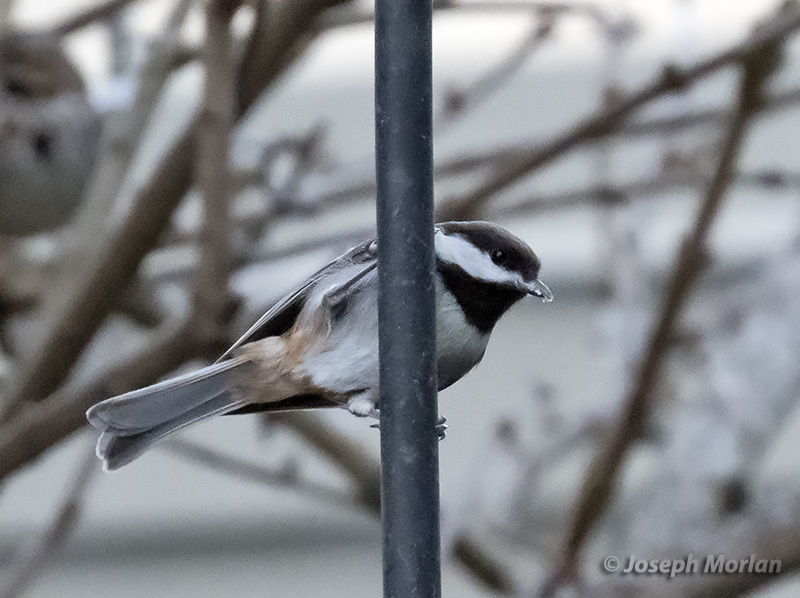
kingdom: Animalia
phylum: Chordata
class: Aves
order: Passeriformes
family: Paridae
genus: Poecile
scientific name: Poecile rufescens
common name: Chestnut-backed chickadee
